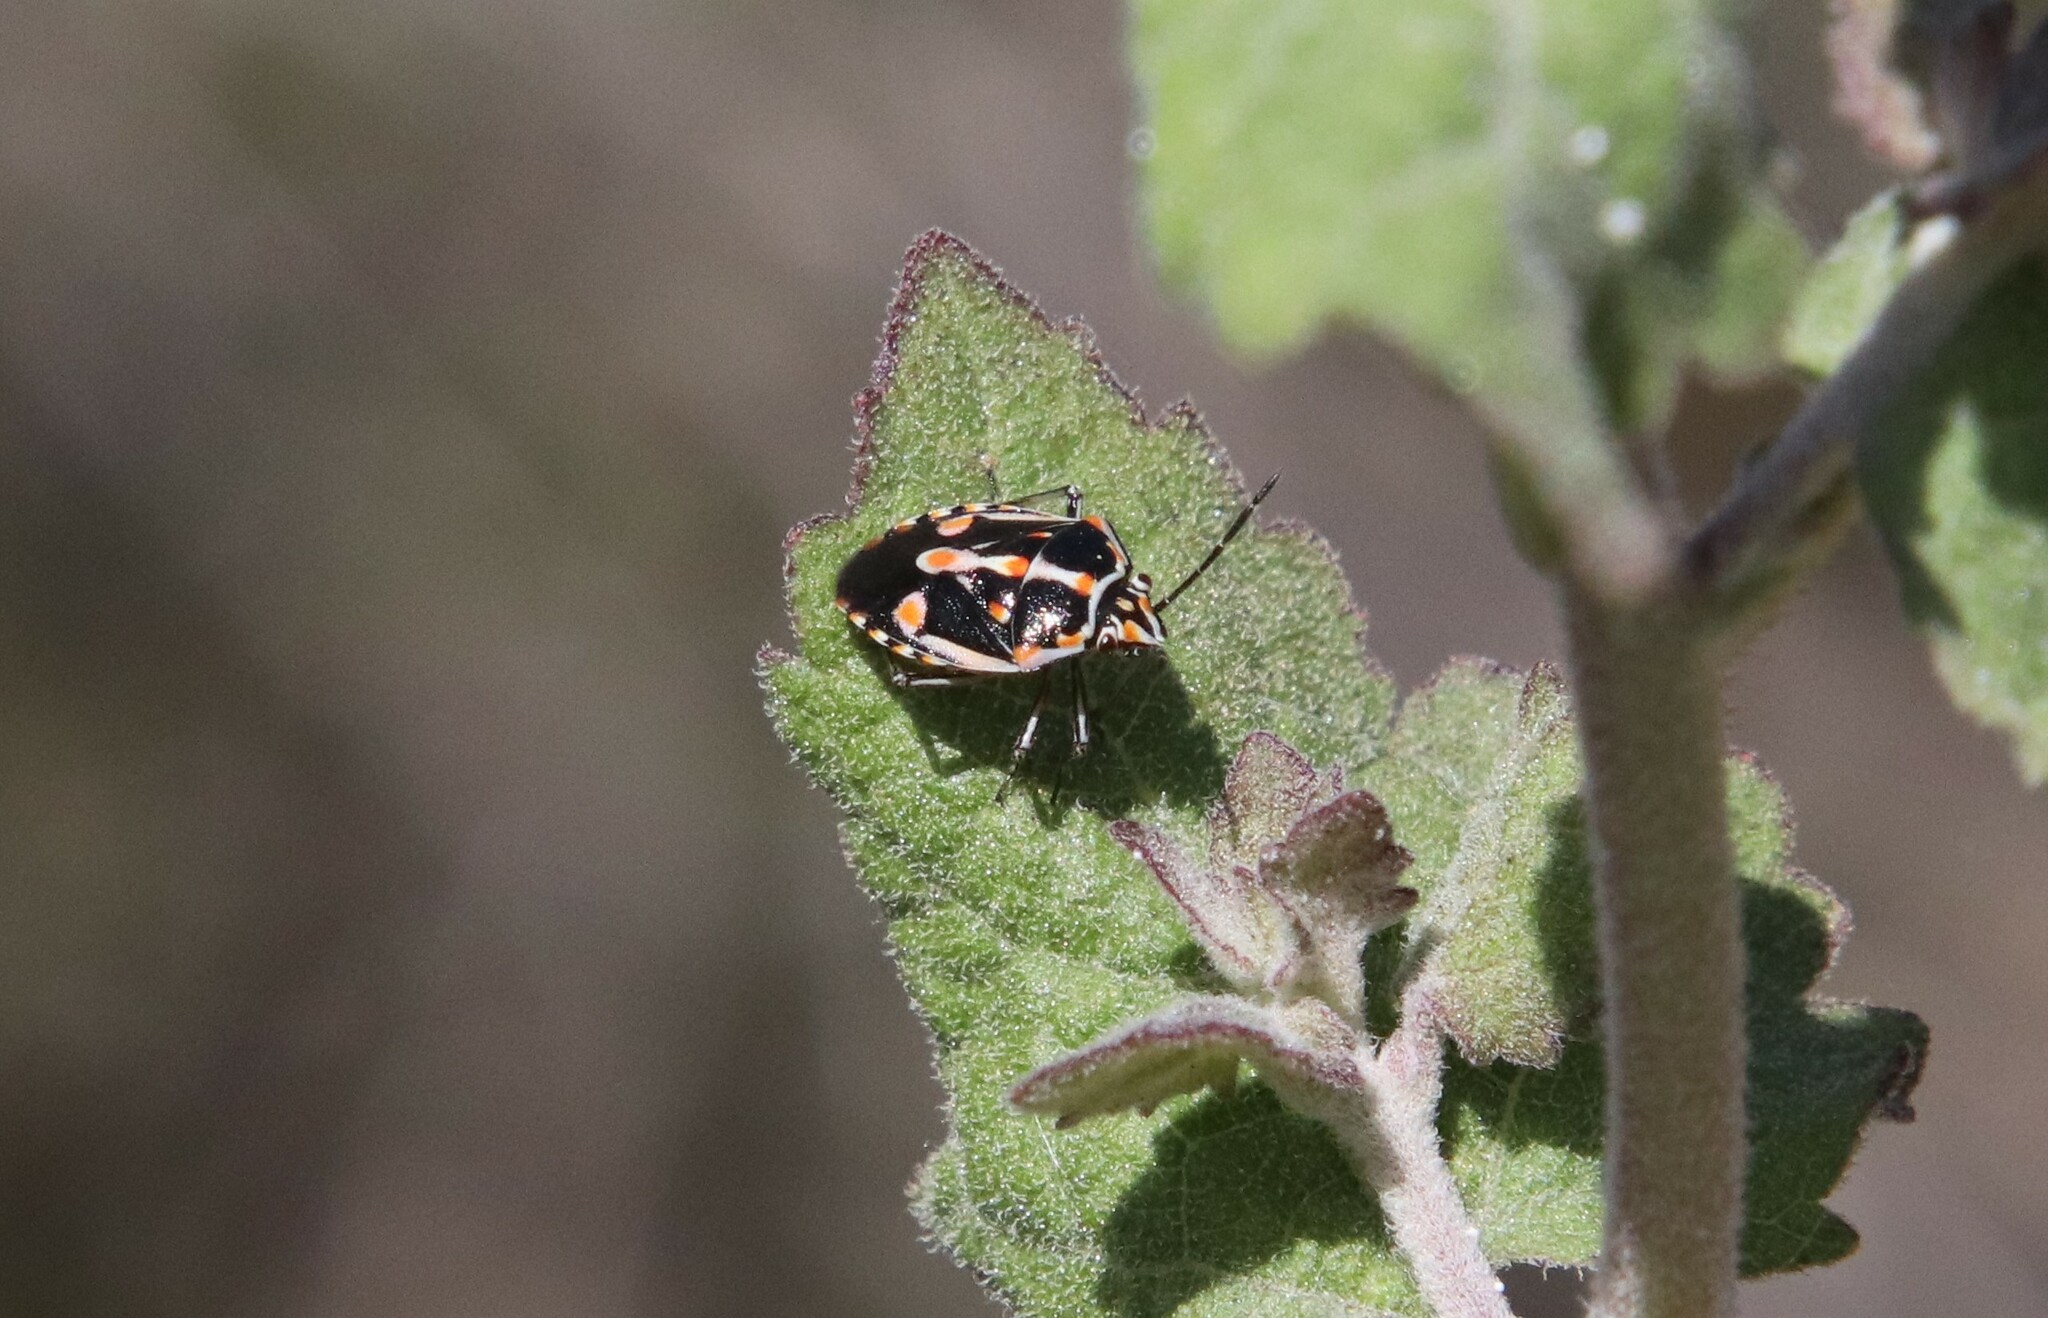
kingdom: Animalia
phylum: Arthropoda
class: Insecta
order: Hemiptera
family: Pentatomidae
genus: Bagrada
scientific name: Bagrada hilaris
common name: Bagrada bug
